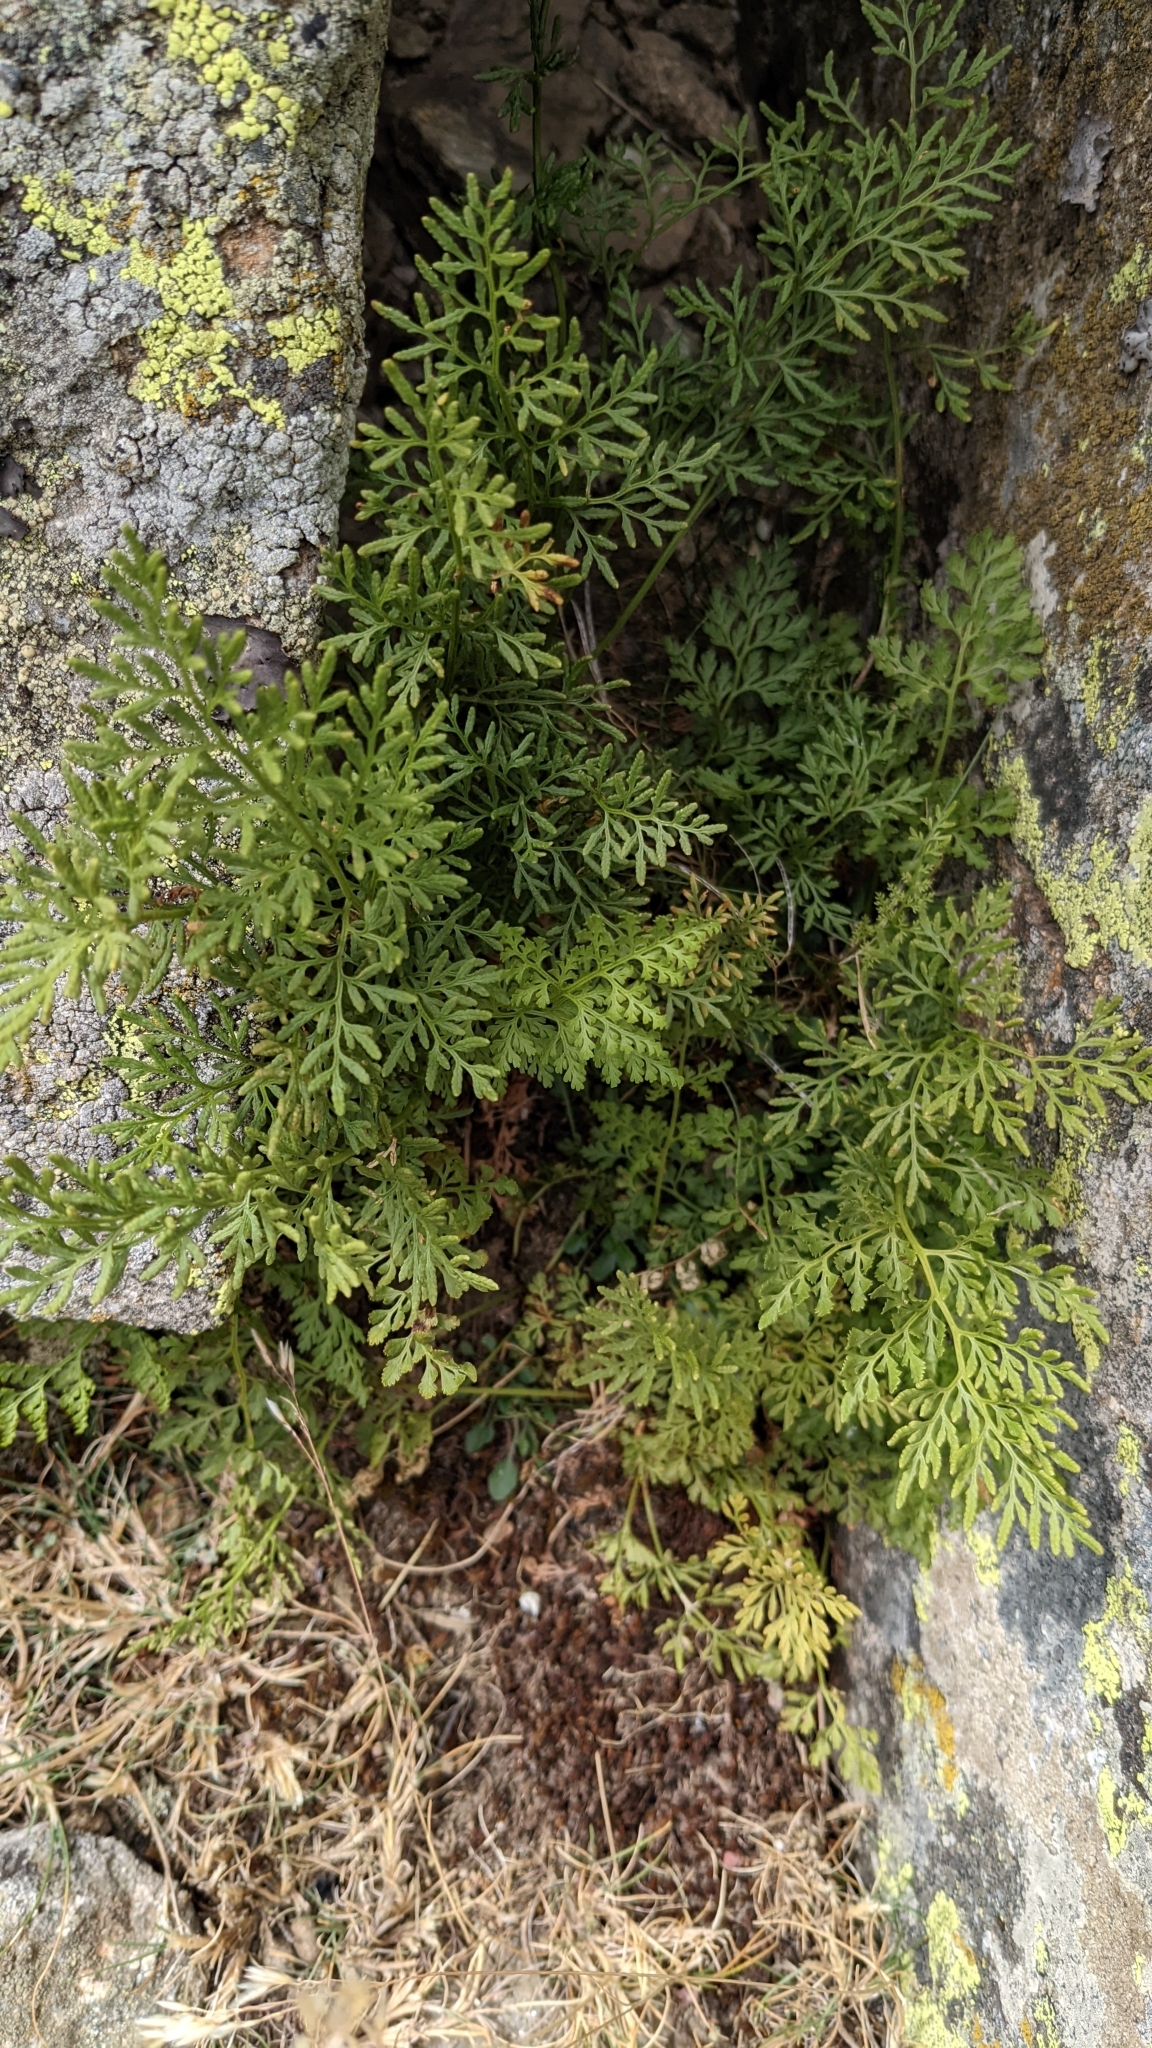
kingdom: Plantae
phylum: Tracheophyta
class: Polypodiopsida
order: Polypodiales
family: Pteridaceae
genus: Cryptogramma
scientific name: Cryptogramma crispa
